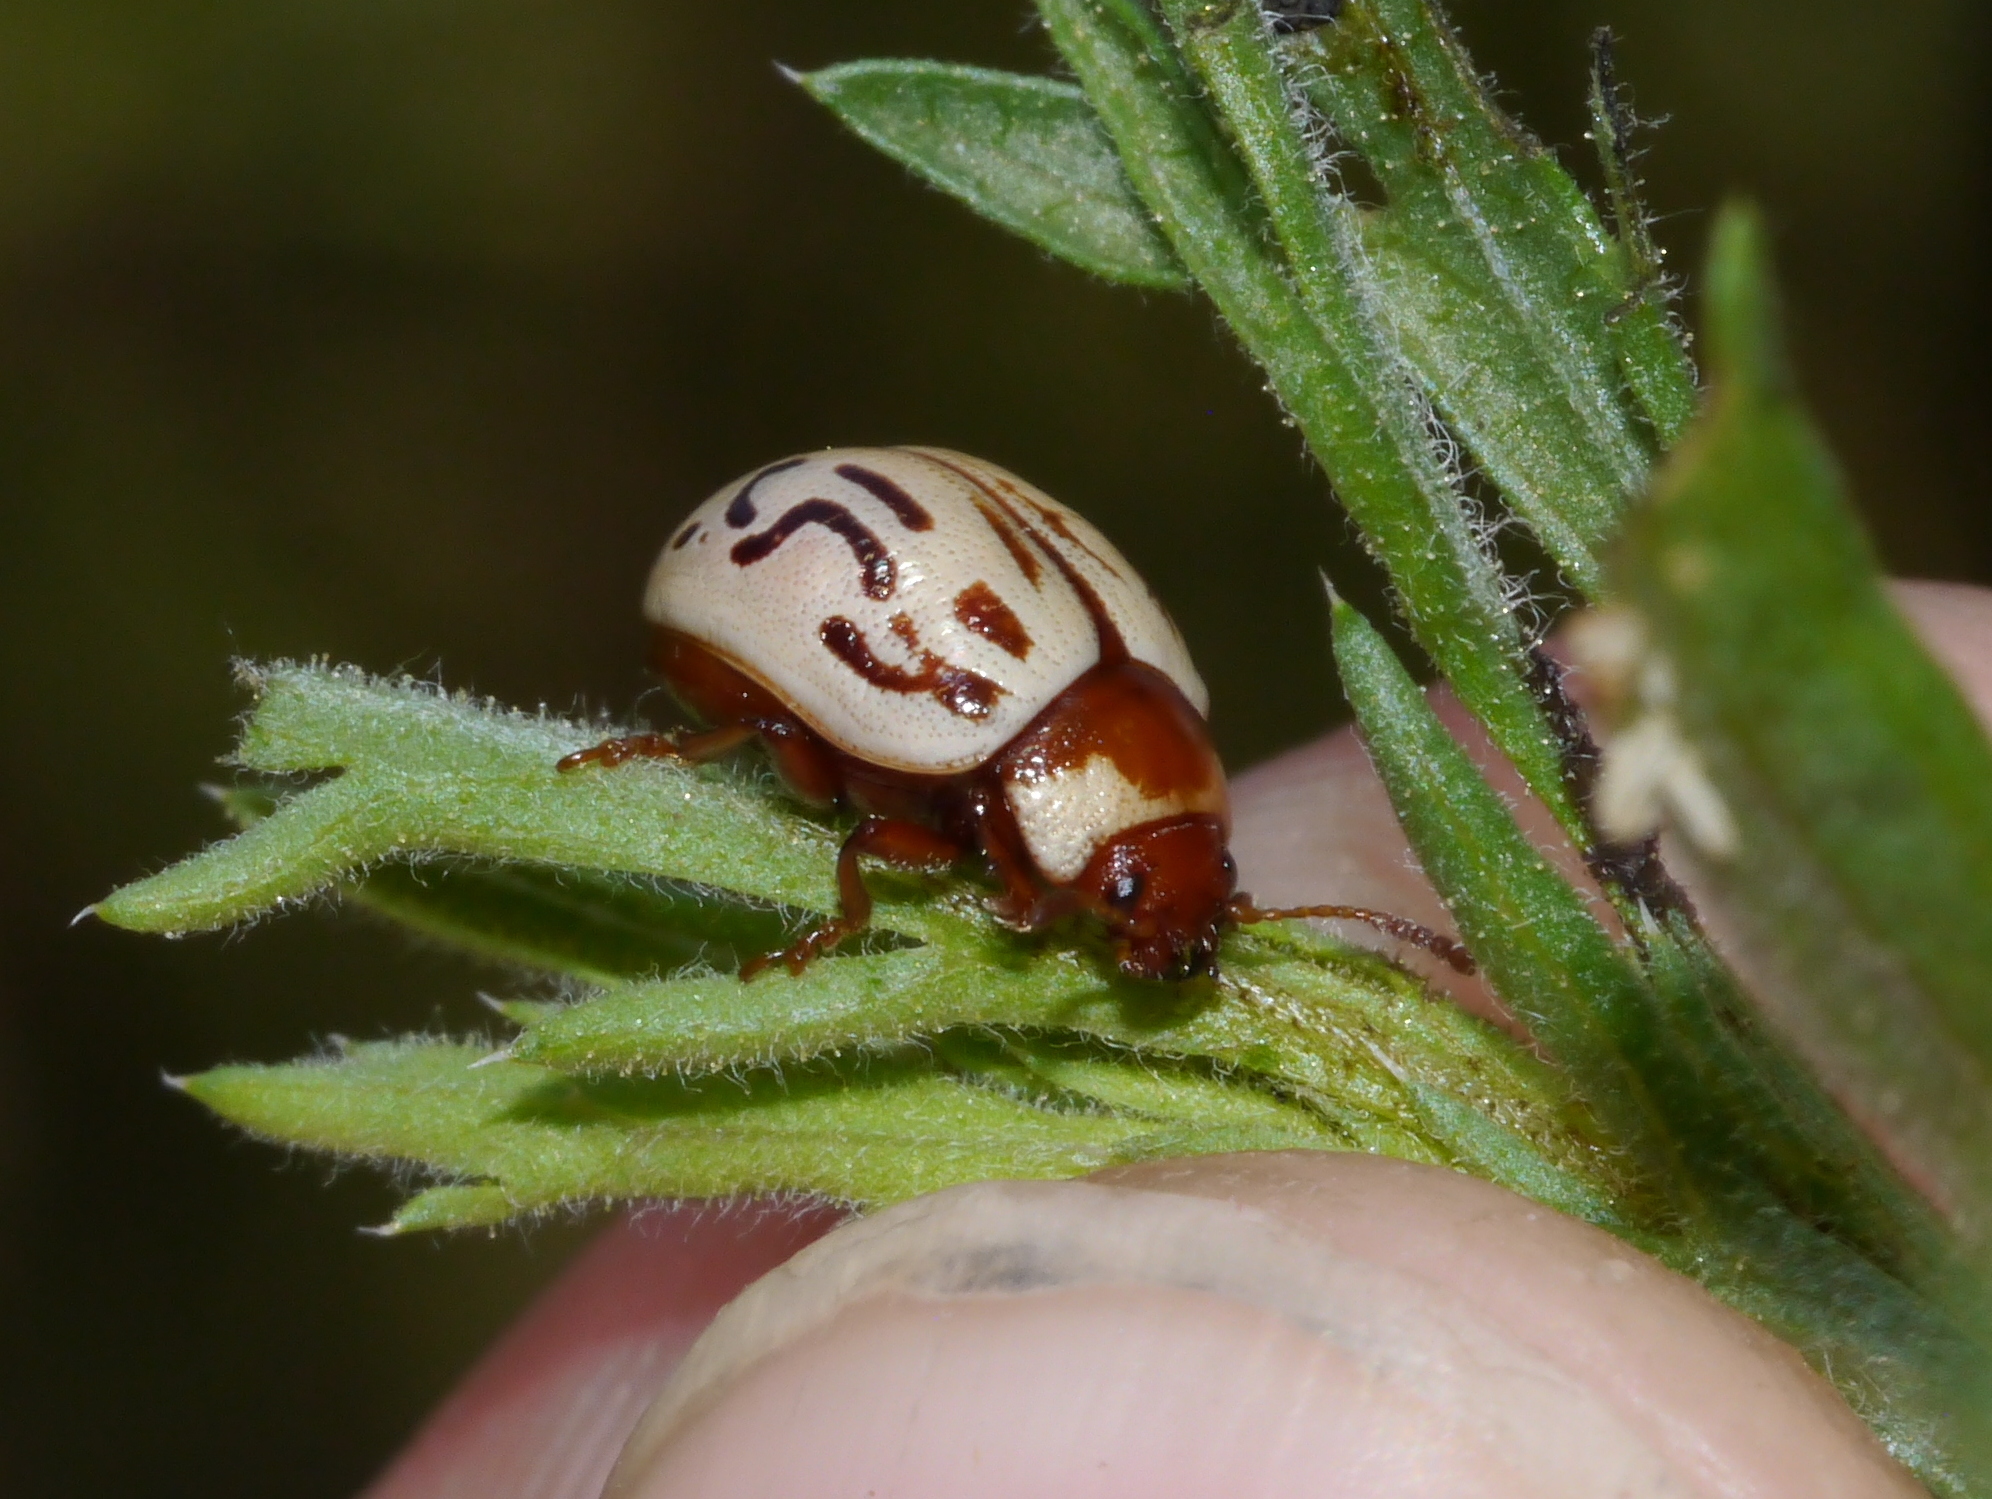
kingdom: Animalia
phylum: Arthropoda
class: Insecta
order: Coleoptera
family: Chrysomelidae
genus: Calligrapha
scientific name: Calligrapha
